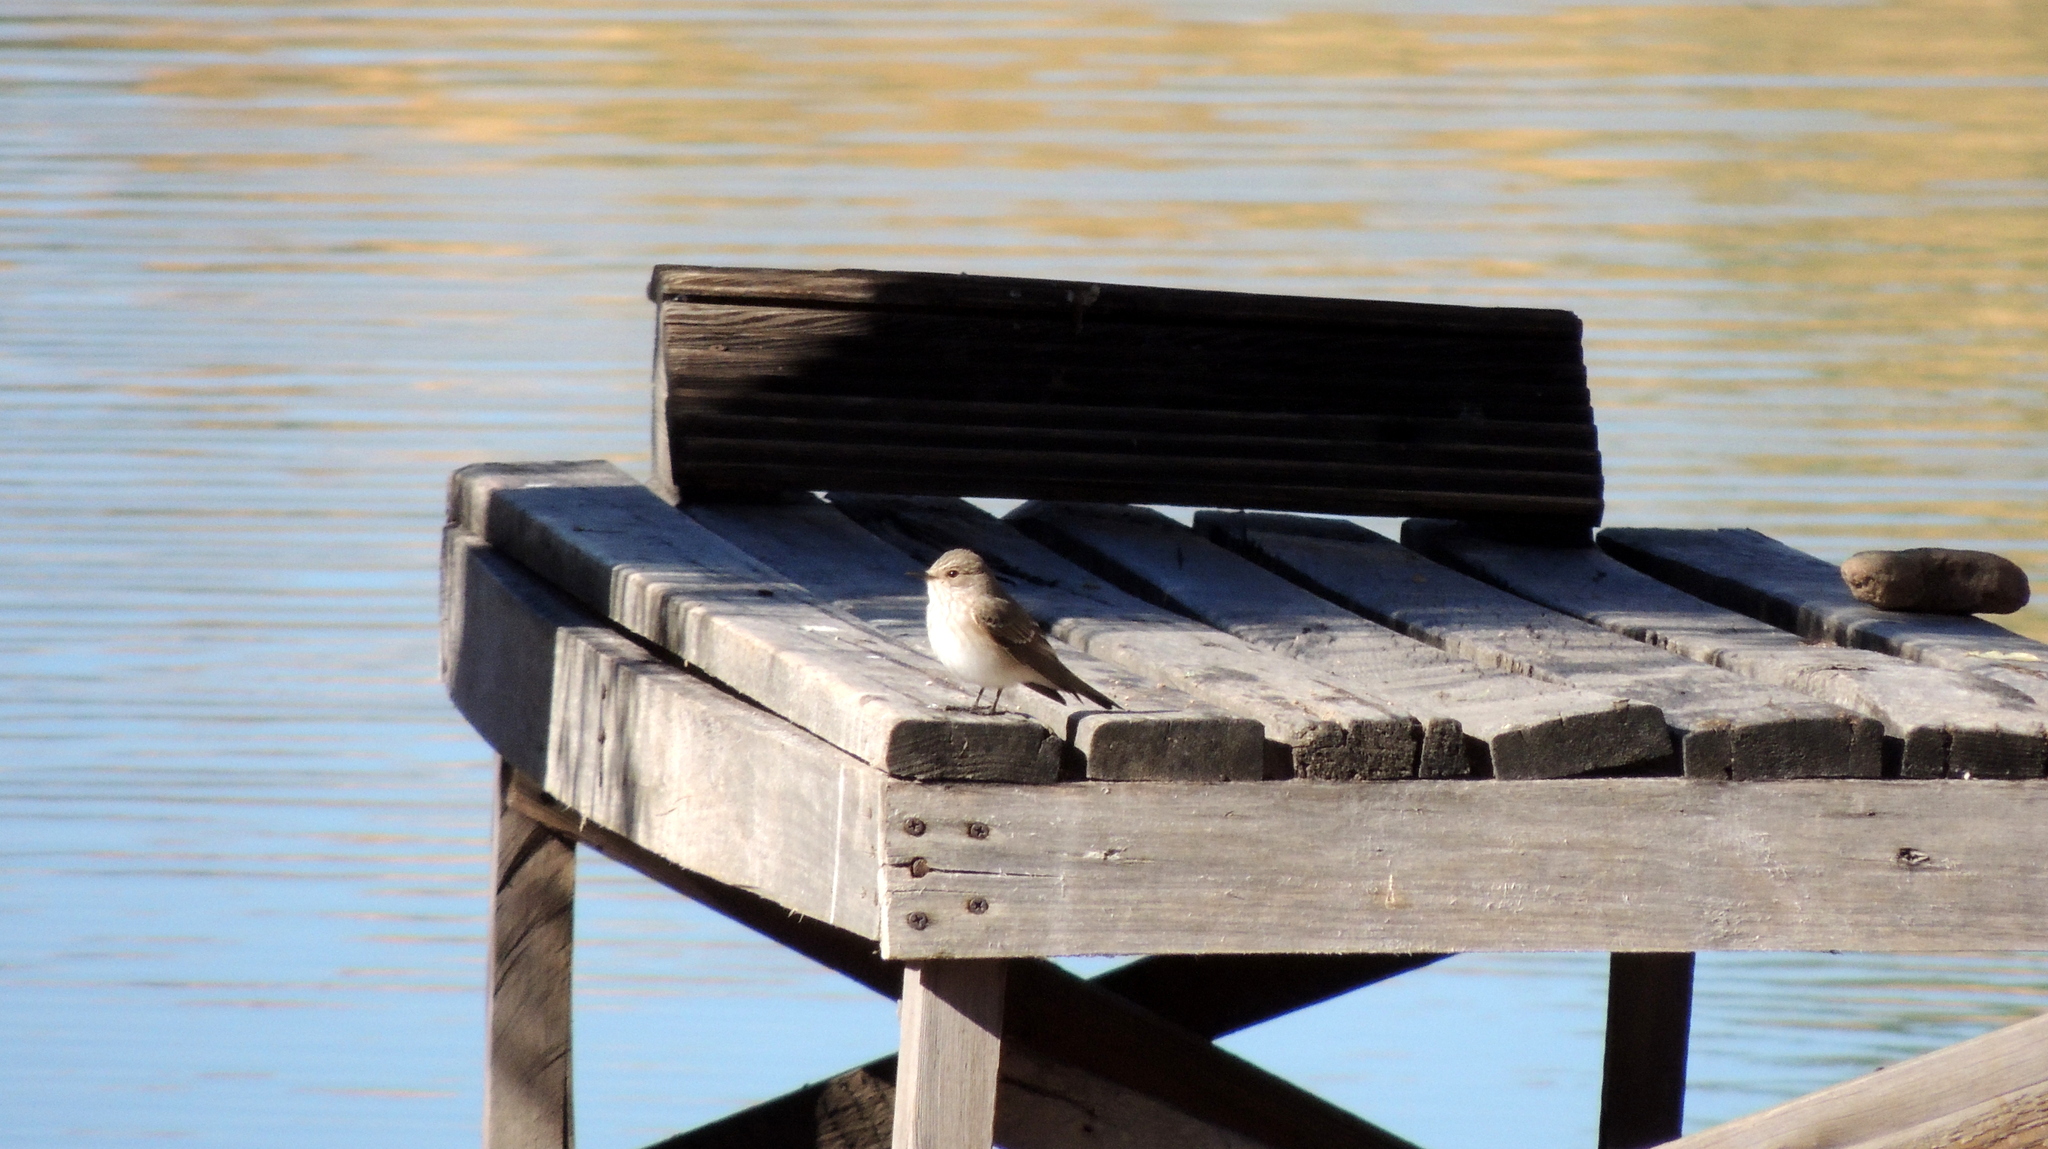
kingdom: Animalia
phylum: Chordata
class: Aves
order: Passeriformes
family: Muscicapidae
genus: Muscicapa
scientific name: Muscicapa striata
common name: Spotted flycatcher
